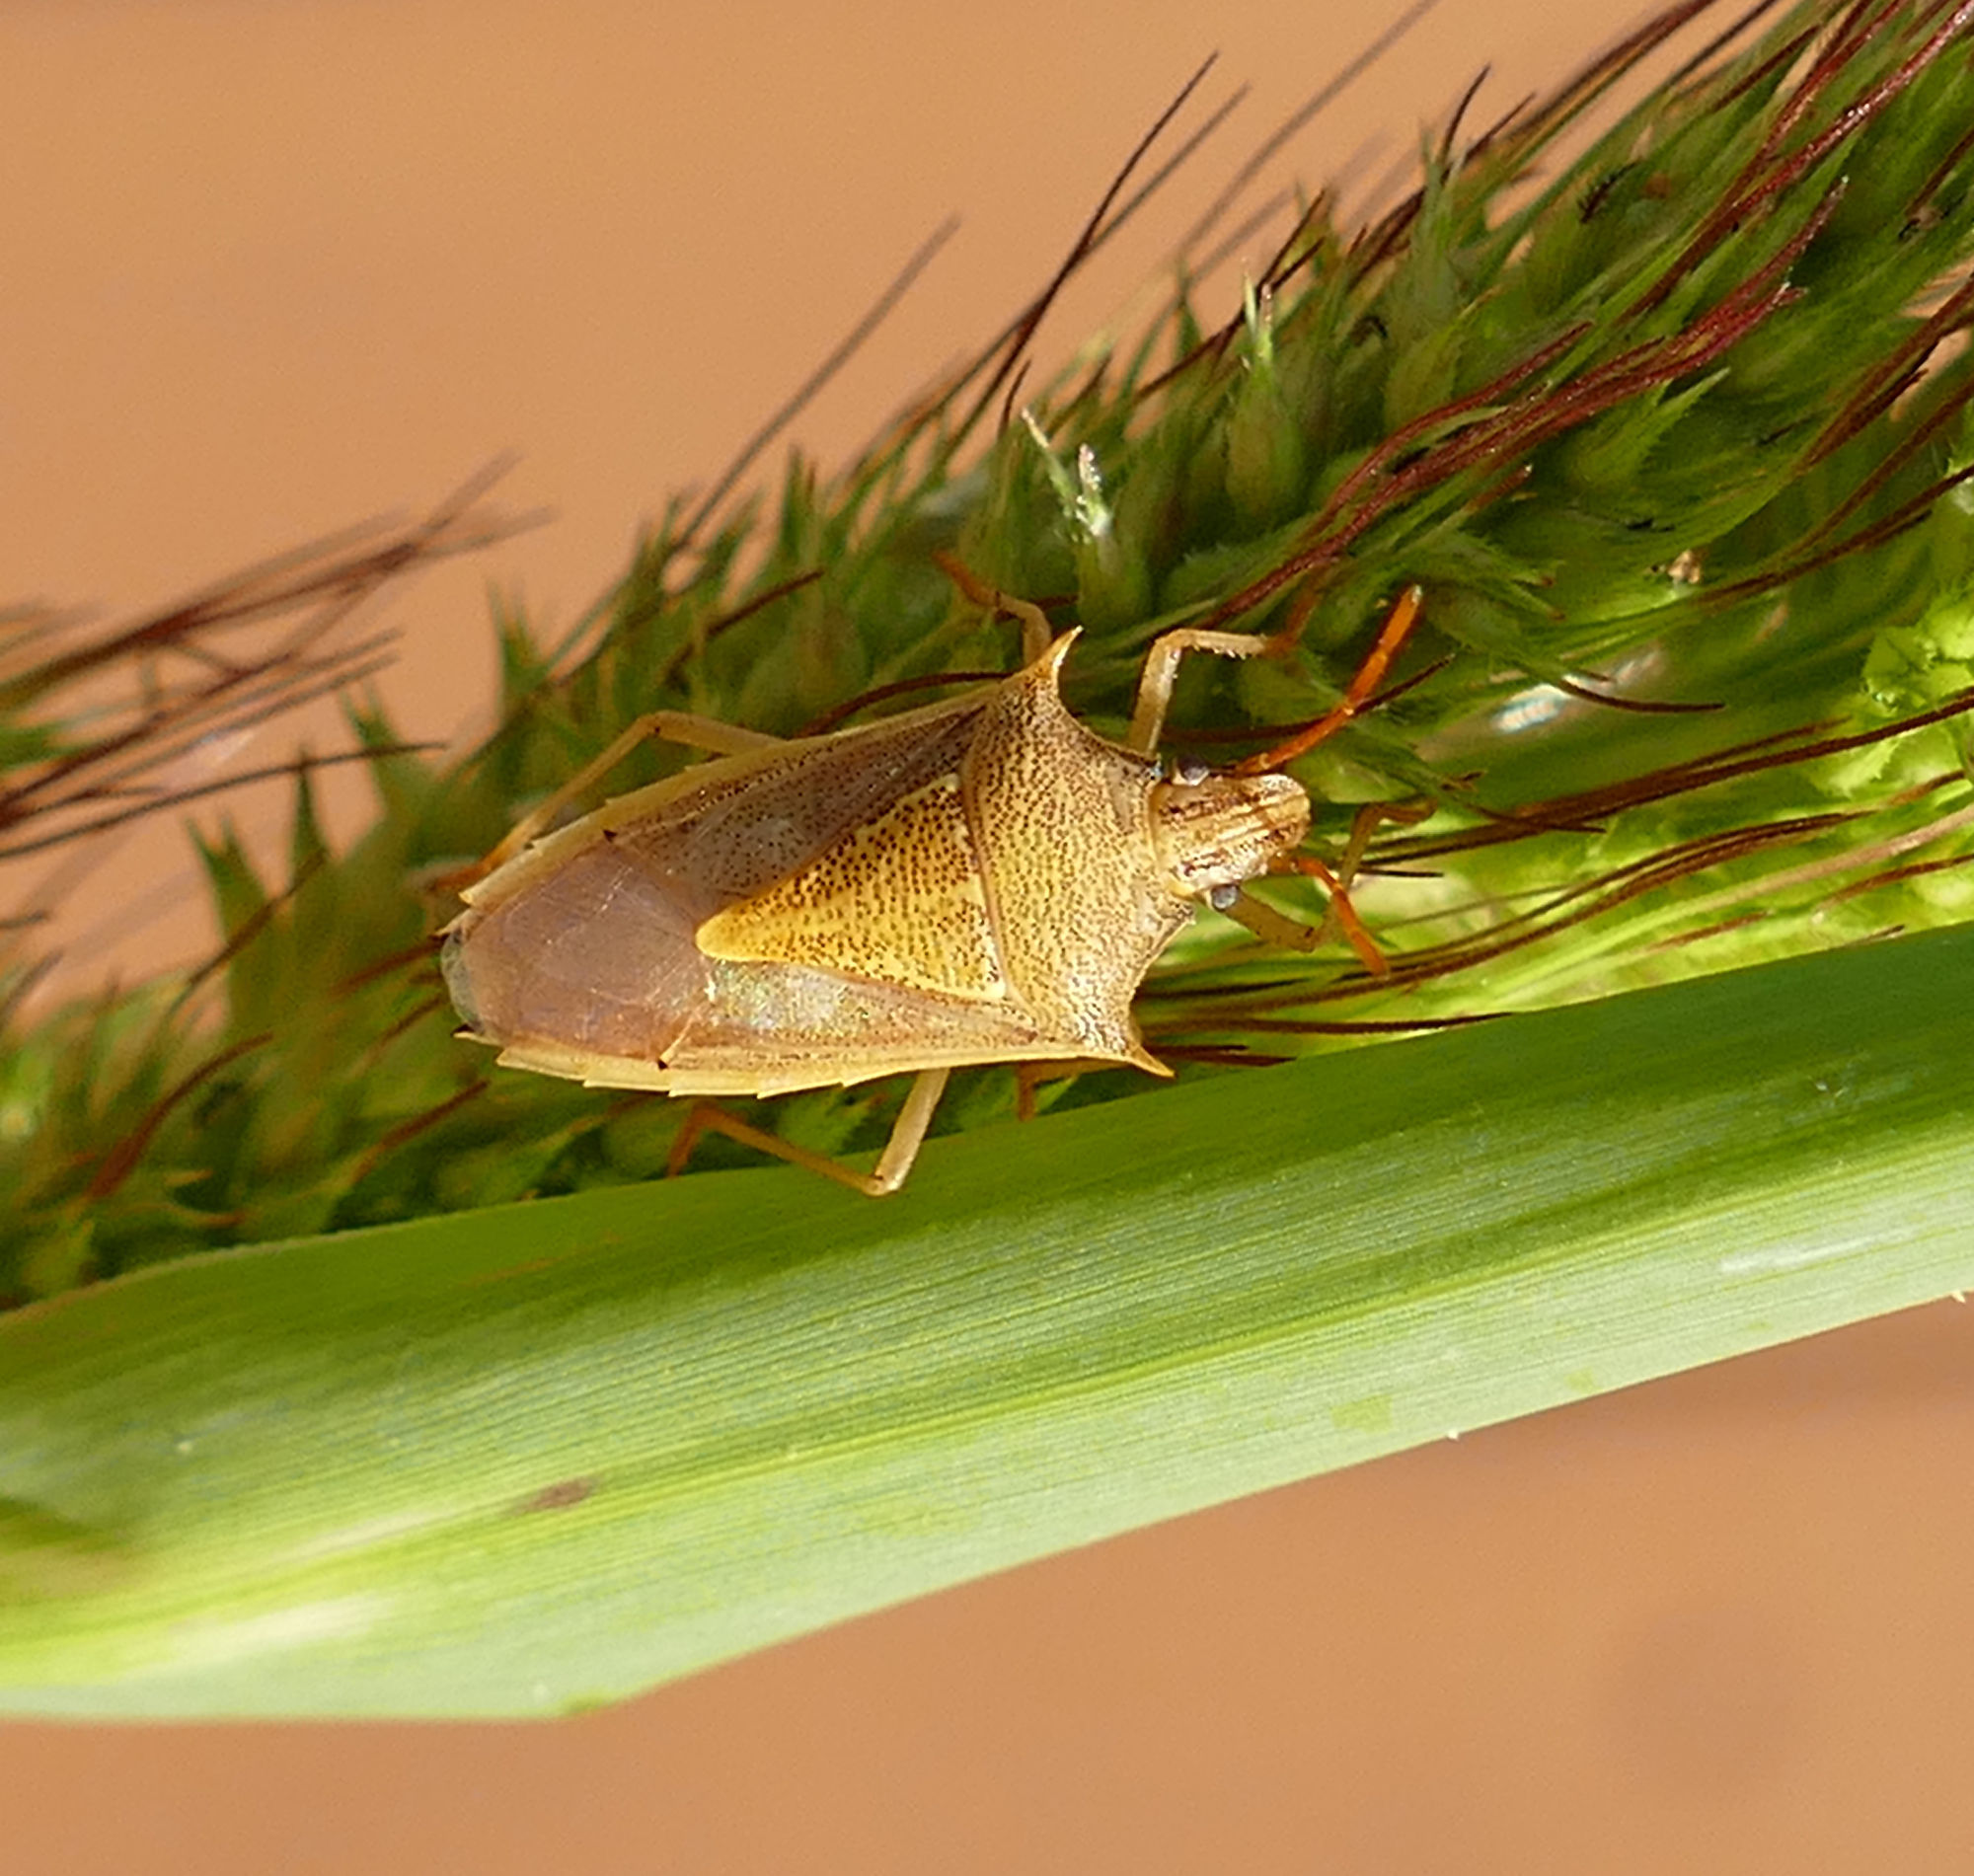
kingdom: Animalia
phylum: Arthropoda
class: Insecta
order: Hemiptera
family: Pentatomidae
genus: Oebalus
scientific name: Oebalus pugnax
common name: Rice stink bug
